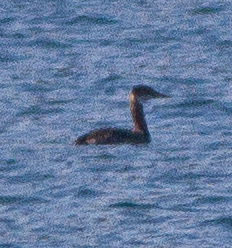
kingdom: Animalia
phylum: Chordata
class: Aves
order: Podicipediformes
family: Podicipedidae
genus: Podiceps
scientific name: Podiceps grisegena
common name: Red-necked grebe
